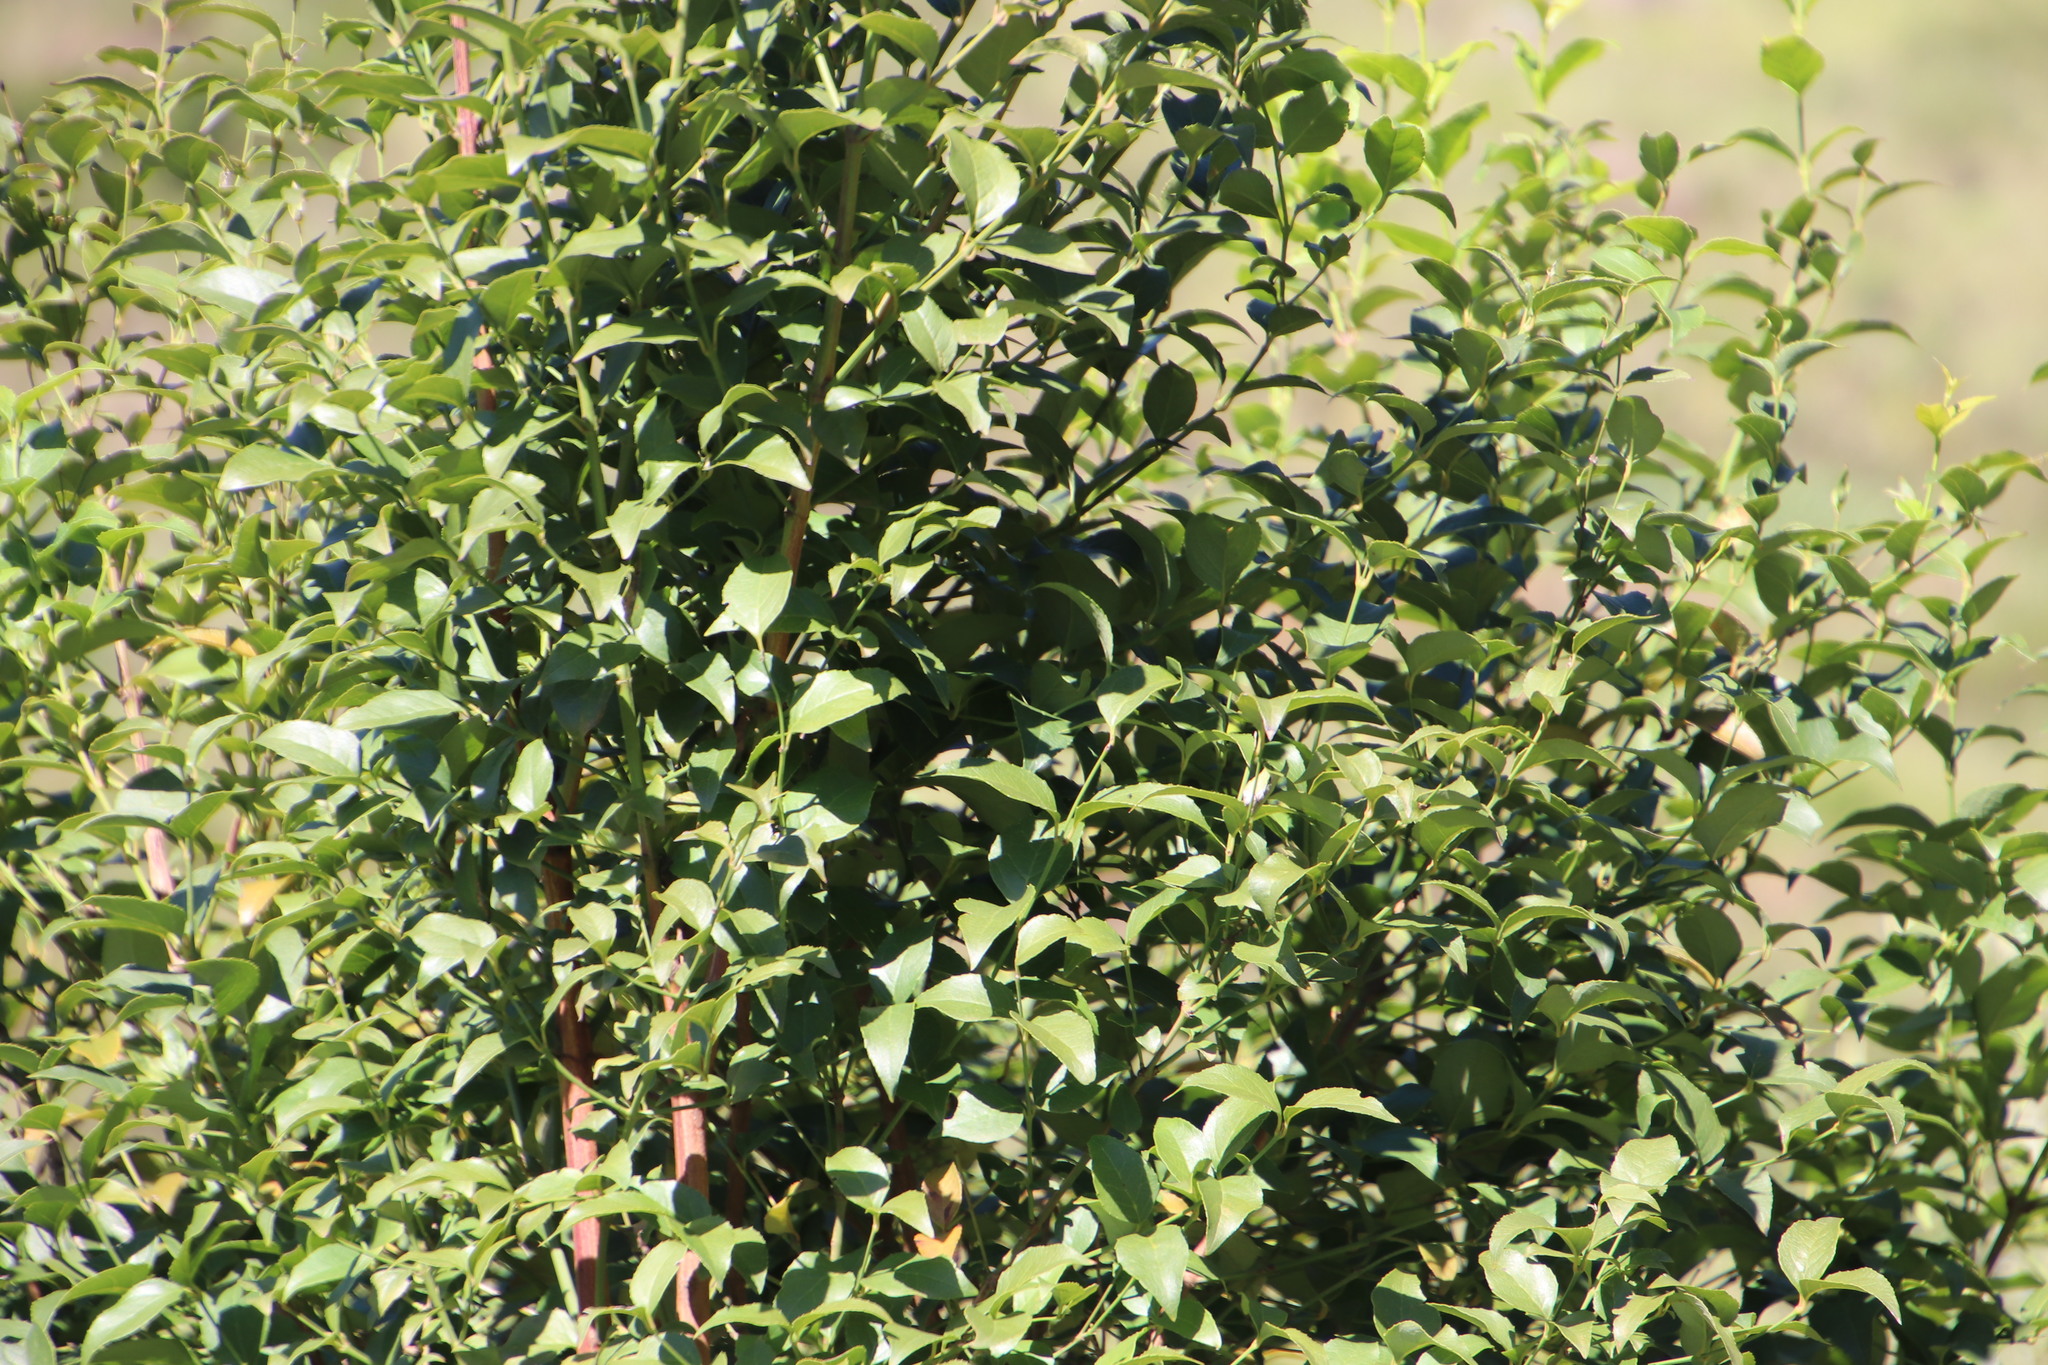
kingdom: Plantae
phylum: Tracheophyta
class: Magnoliopsida
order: Lamiales
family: Stilbaceae
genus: Halleria
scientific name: Halleria lucida
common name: Tree fuschia
